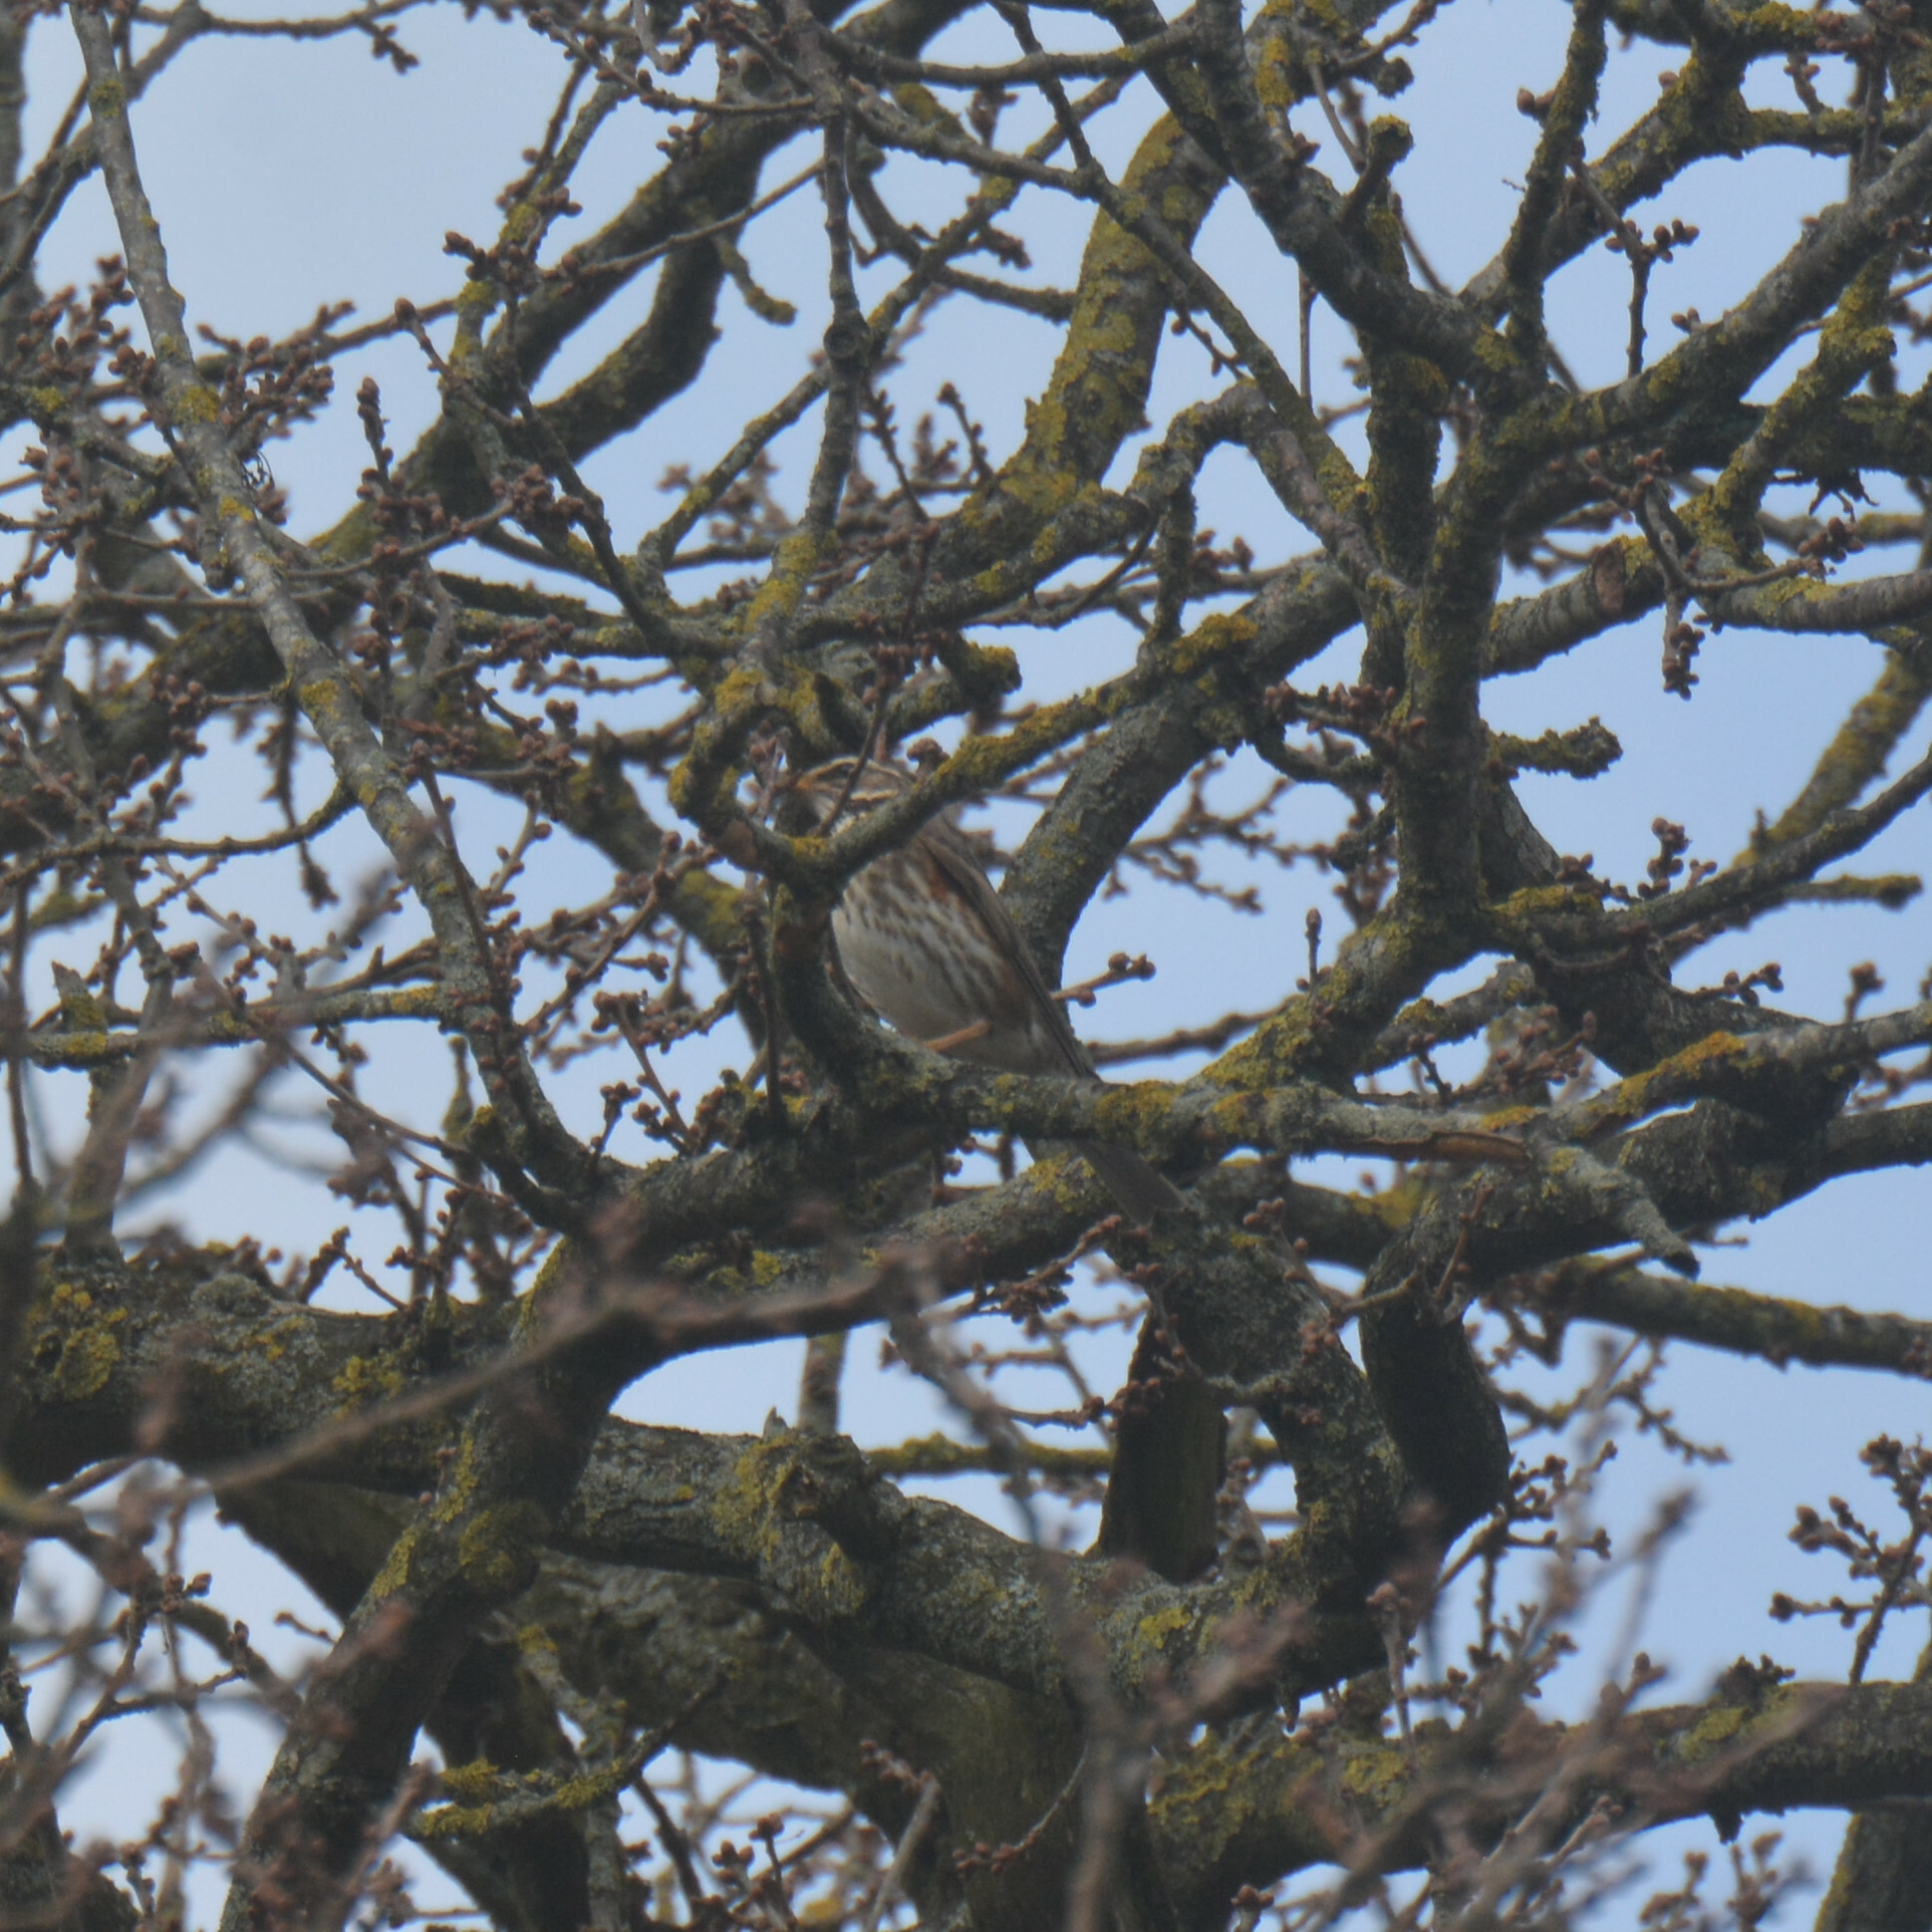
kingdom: Animalia
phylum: Chordata
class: Aves
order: Passeriformes
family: Turdidae
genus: Turdus
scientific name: Turdus iliacus
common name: Redwing
